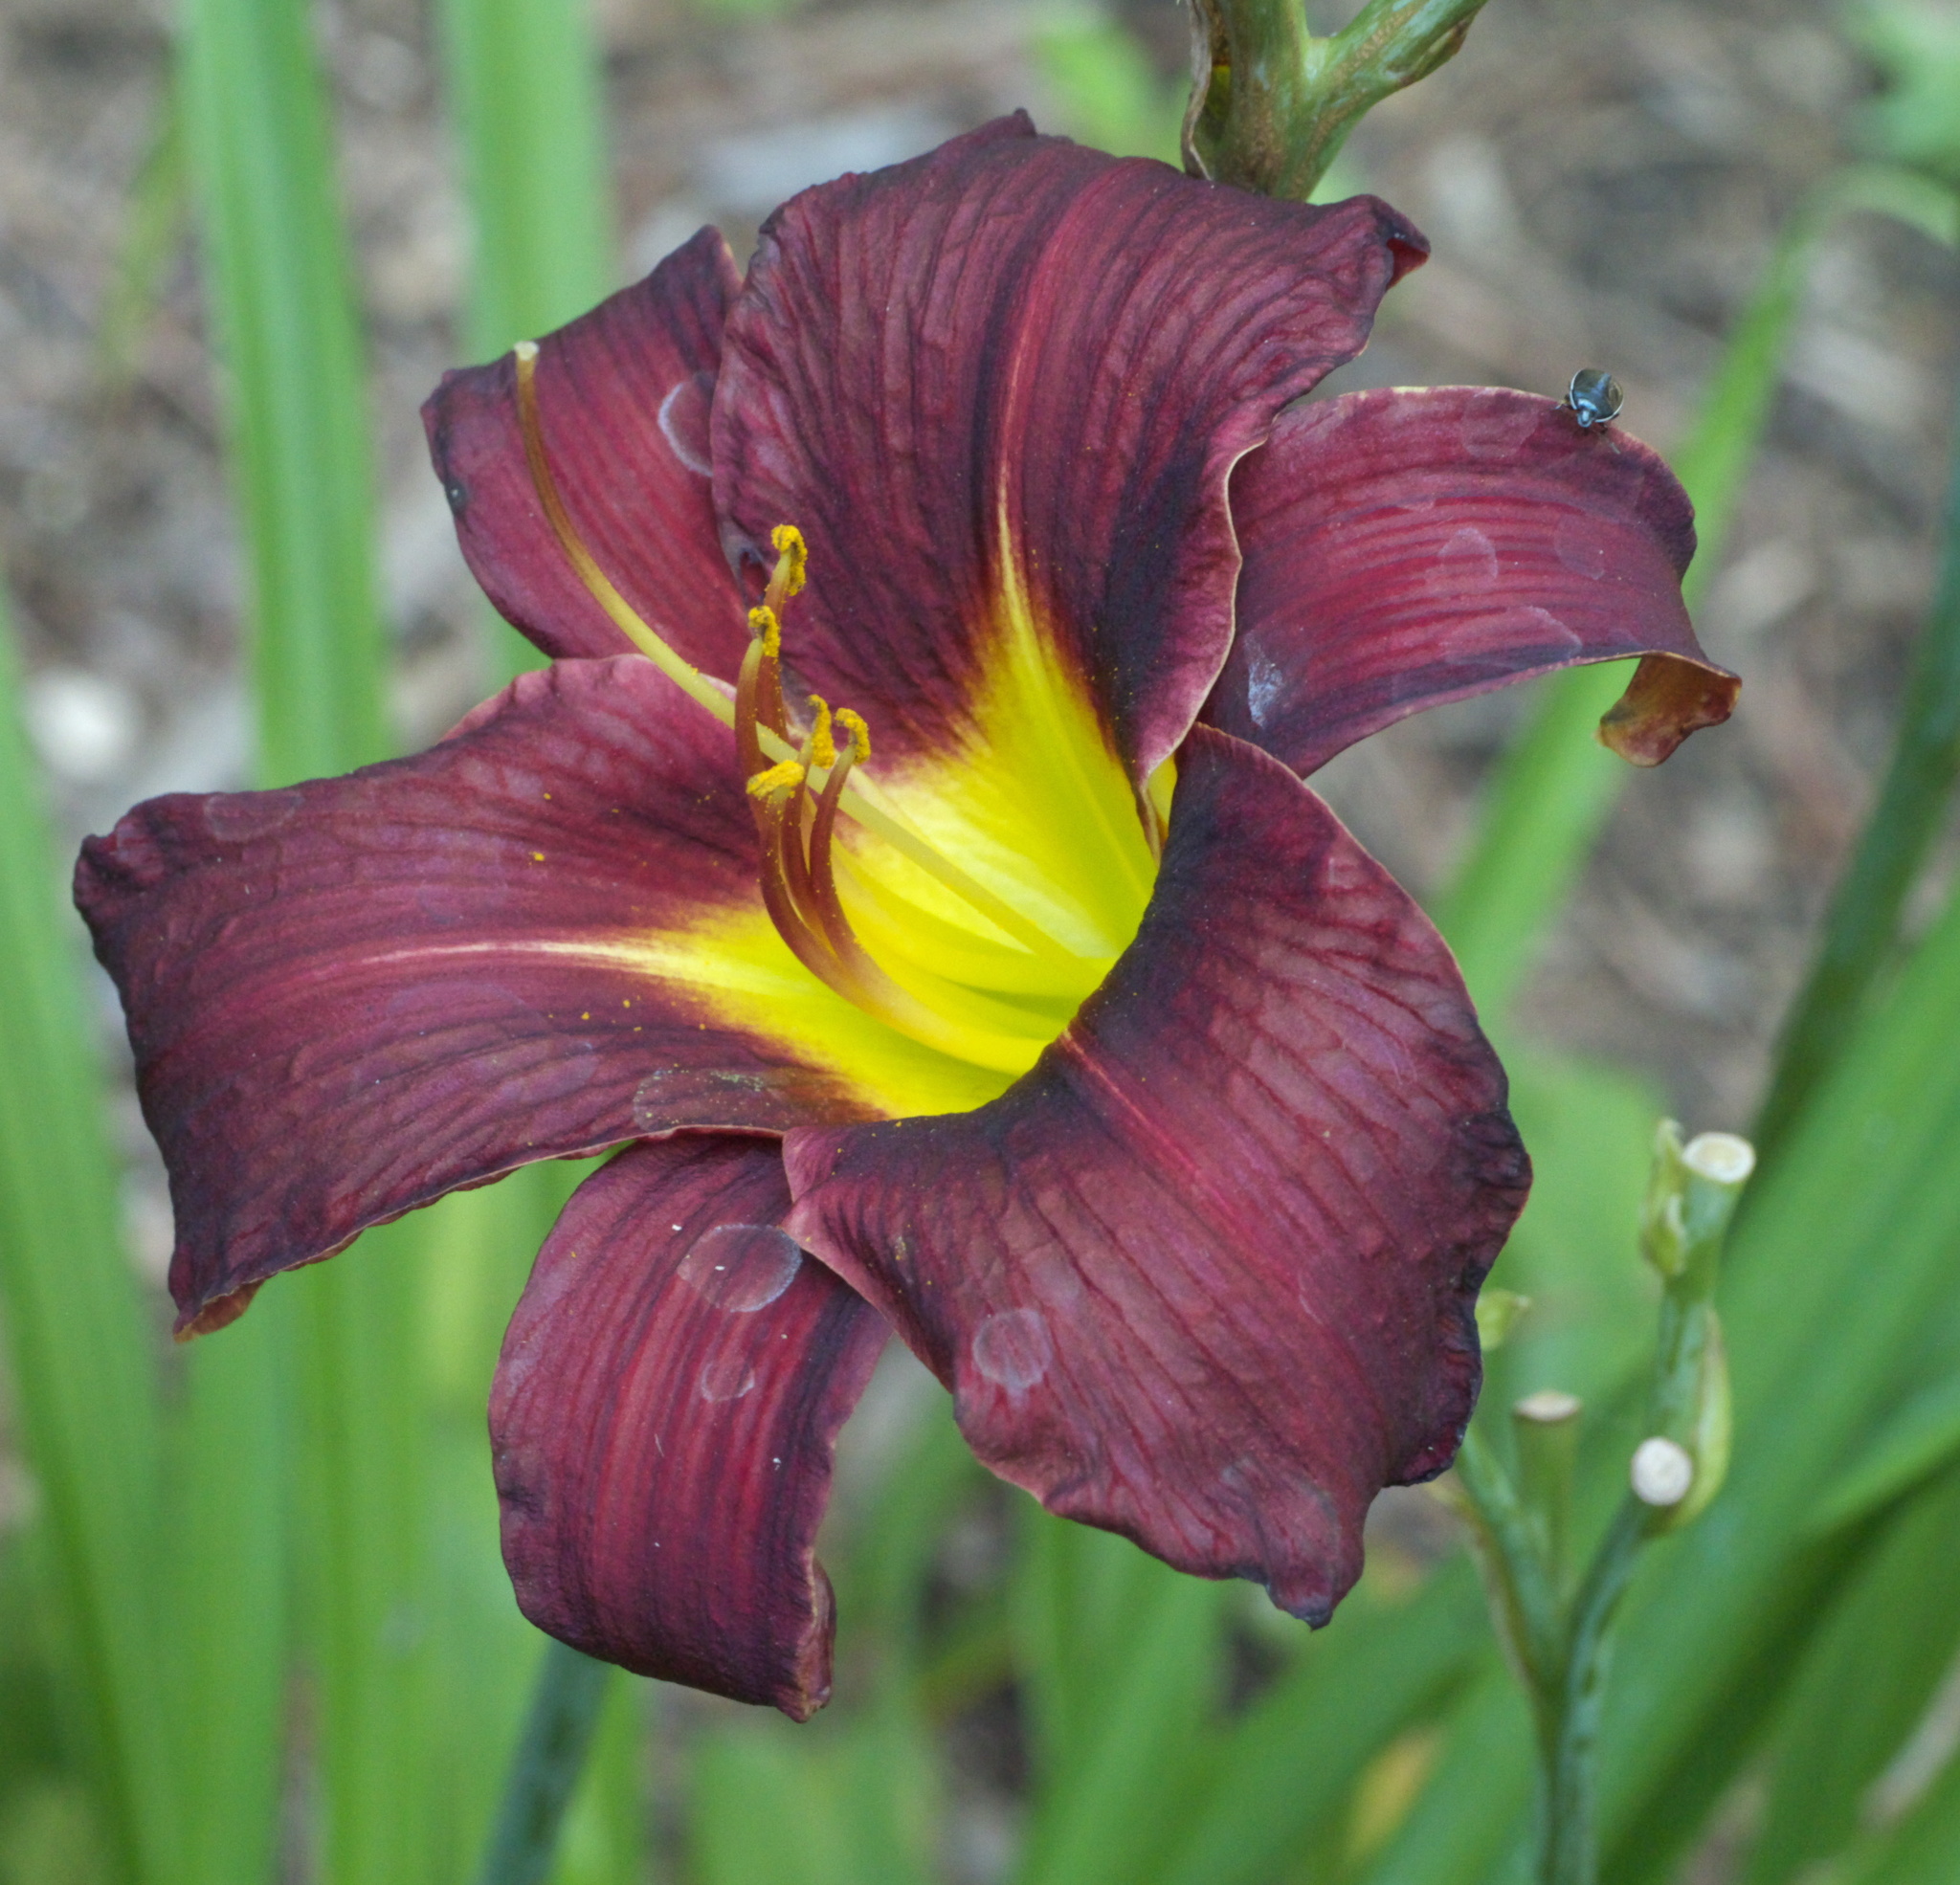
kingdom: Animalia
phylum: Arthropoda
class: Insecta
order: Hemiptera
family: Cydnidae
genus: Sehirus
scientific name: Sehirus cinctus
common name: White-margined burrower bug
